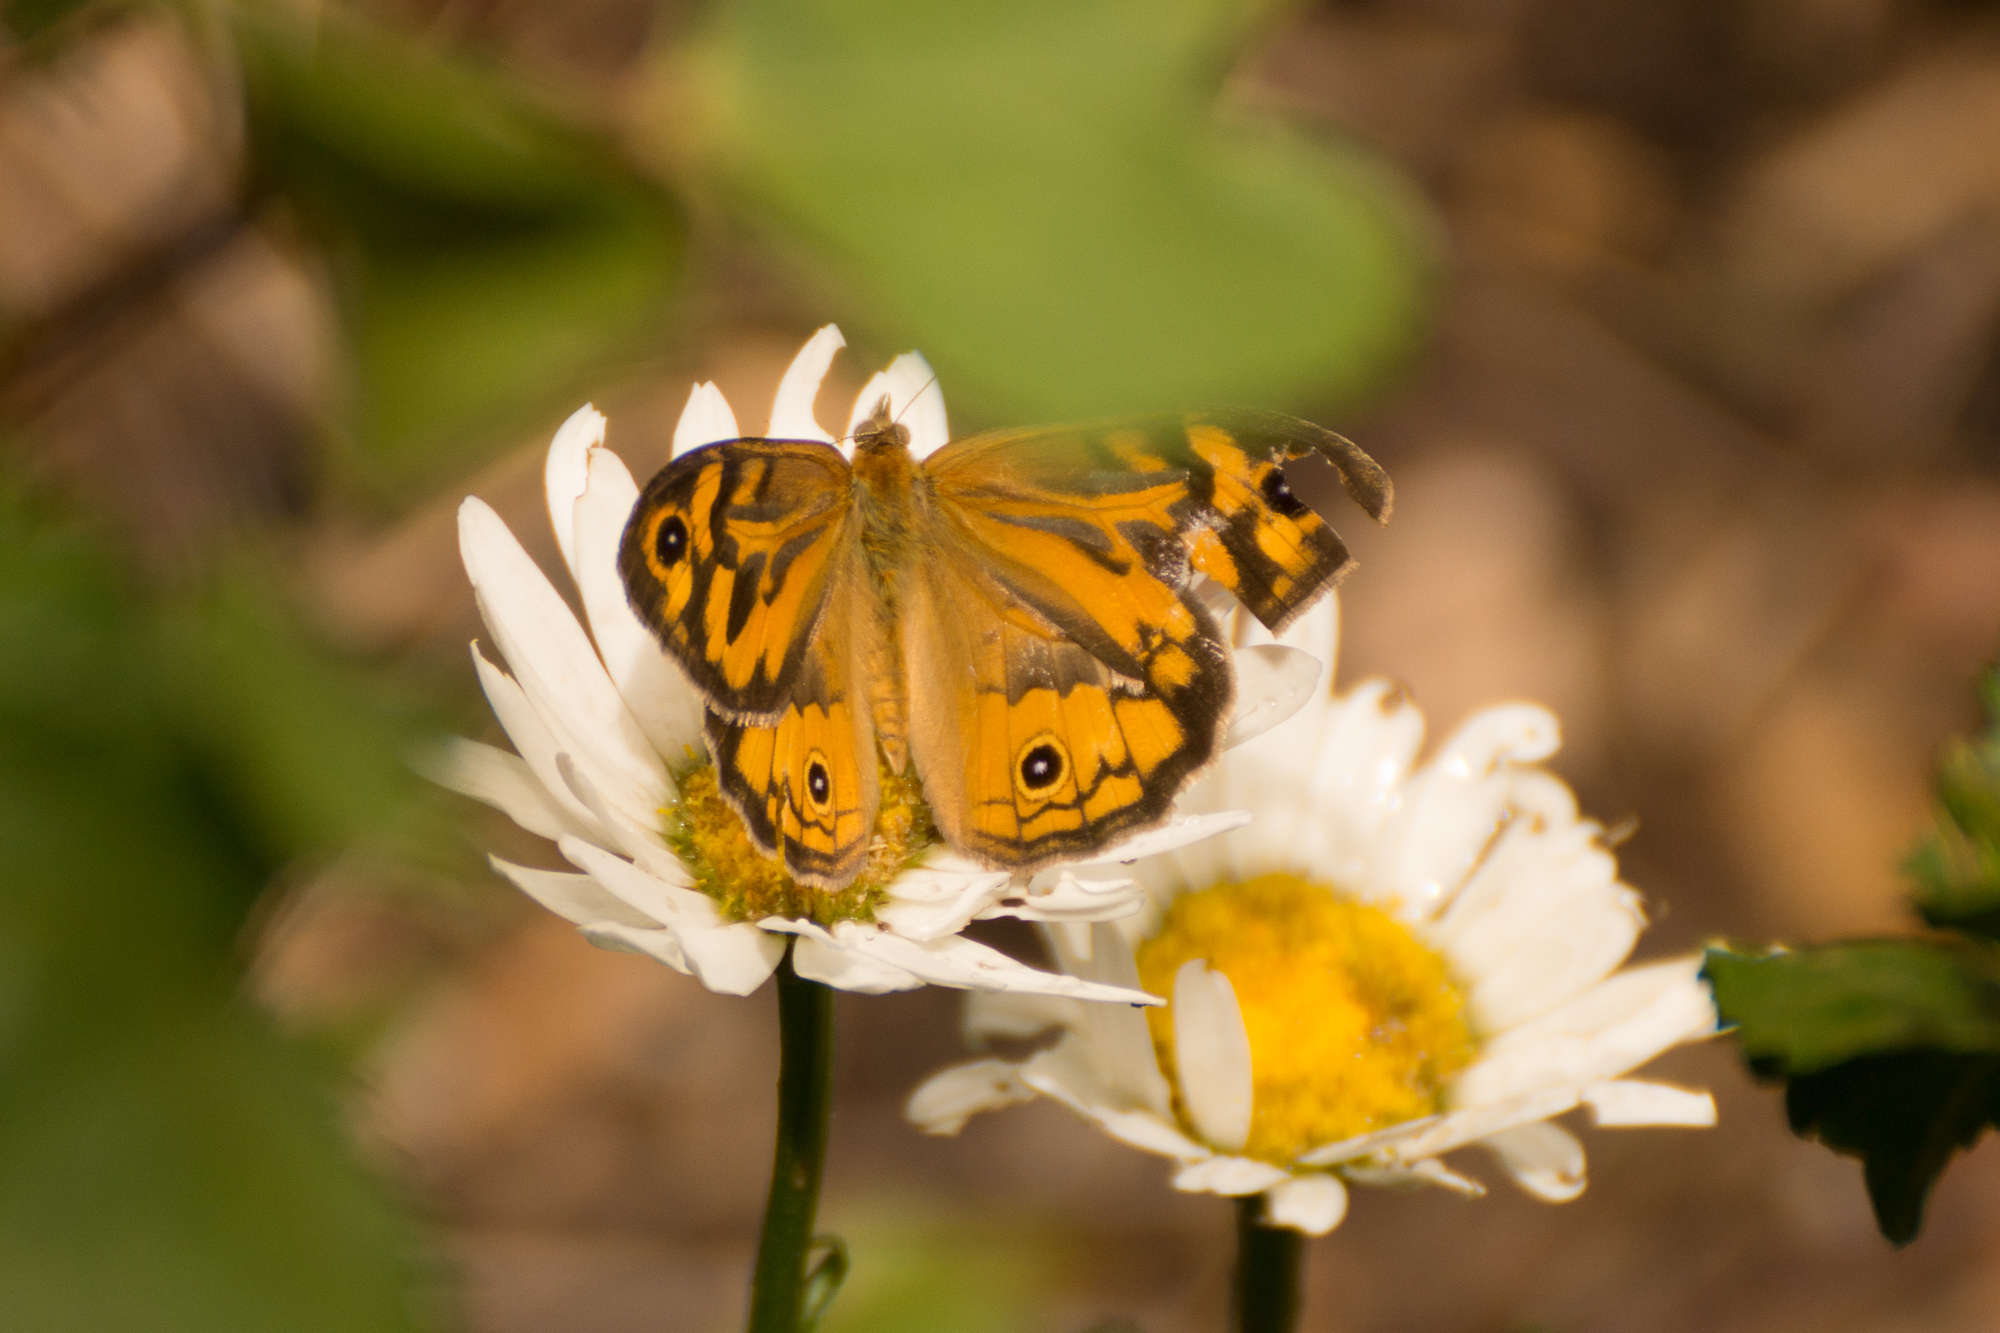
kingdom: Animalia
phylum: Arthropoda
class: Insecta
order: Lepidoptera
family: Nymphalidae
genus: Heteronympha
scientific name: Heteronympha merope
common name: Common brown
